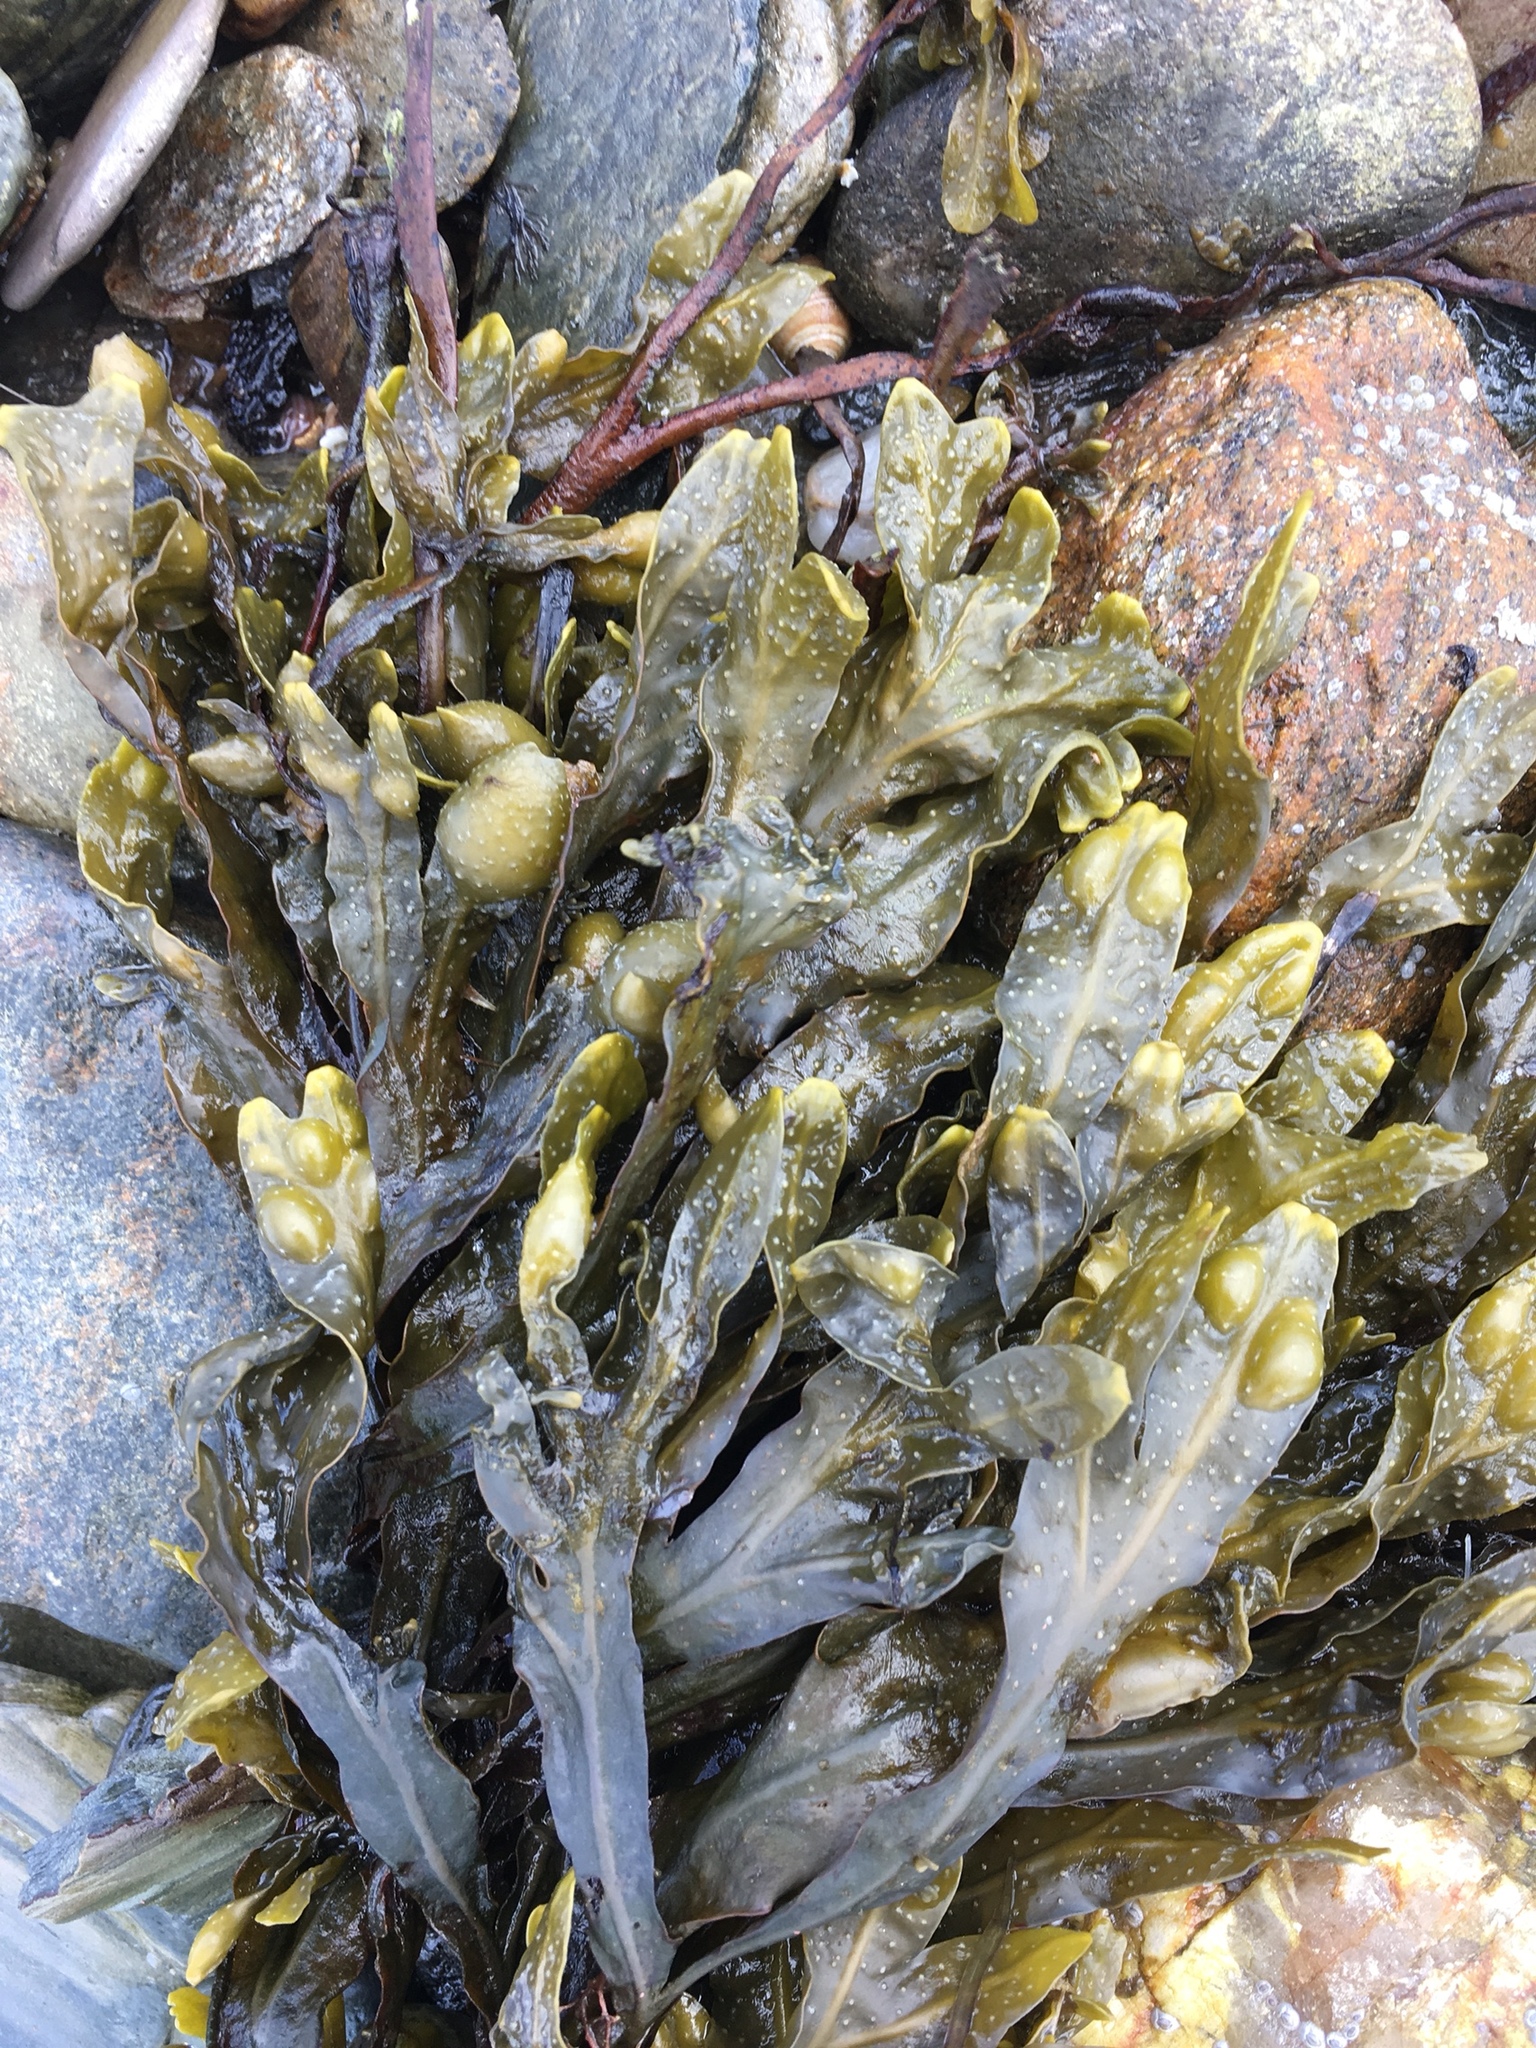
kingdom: Chromista
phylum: Ochrophyta
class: Phaeophyceae
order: Fucales
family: Fucaceae
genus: Fucus
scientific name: Fucus vesiculosus
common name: Bladder wrack
